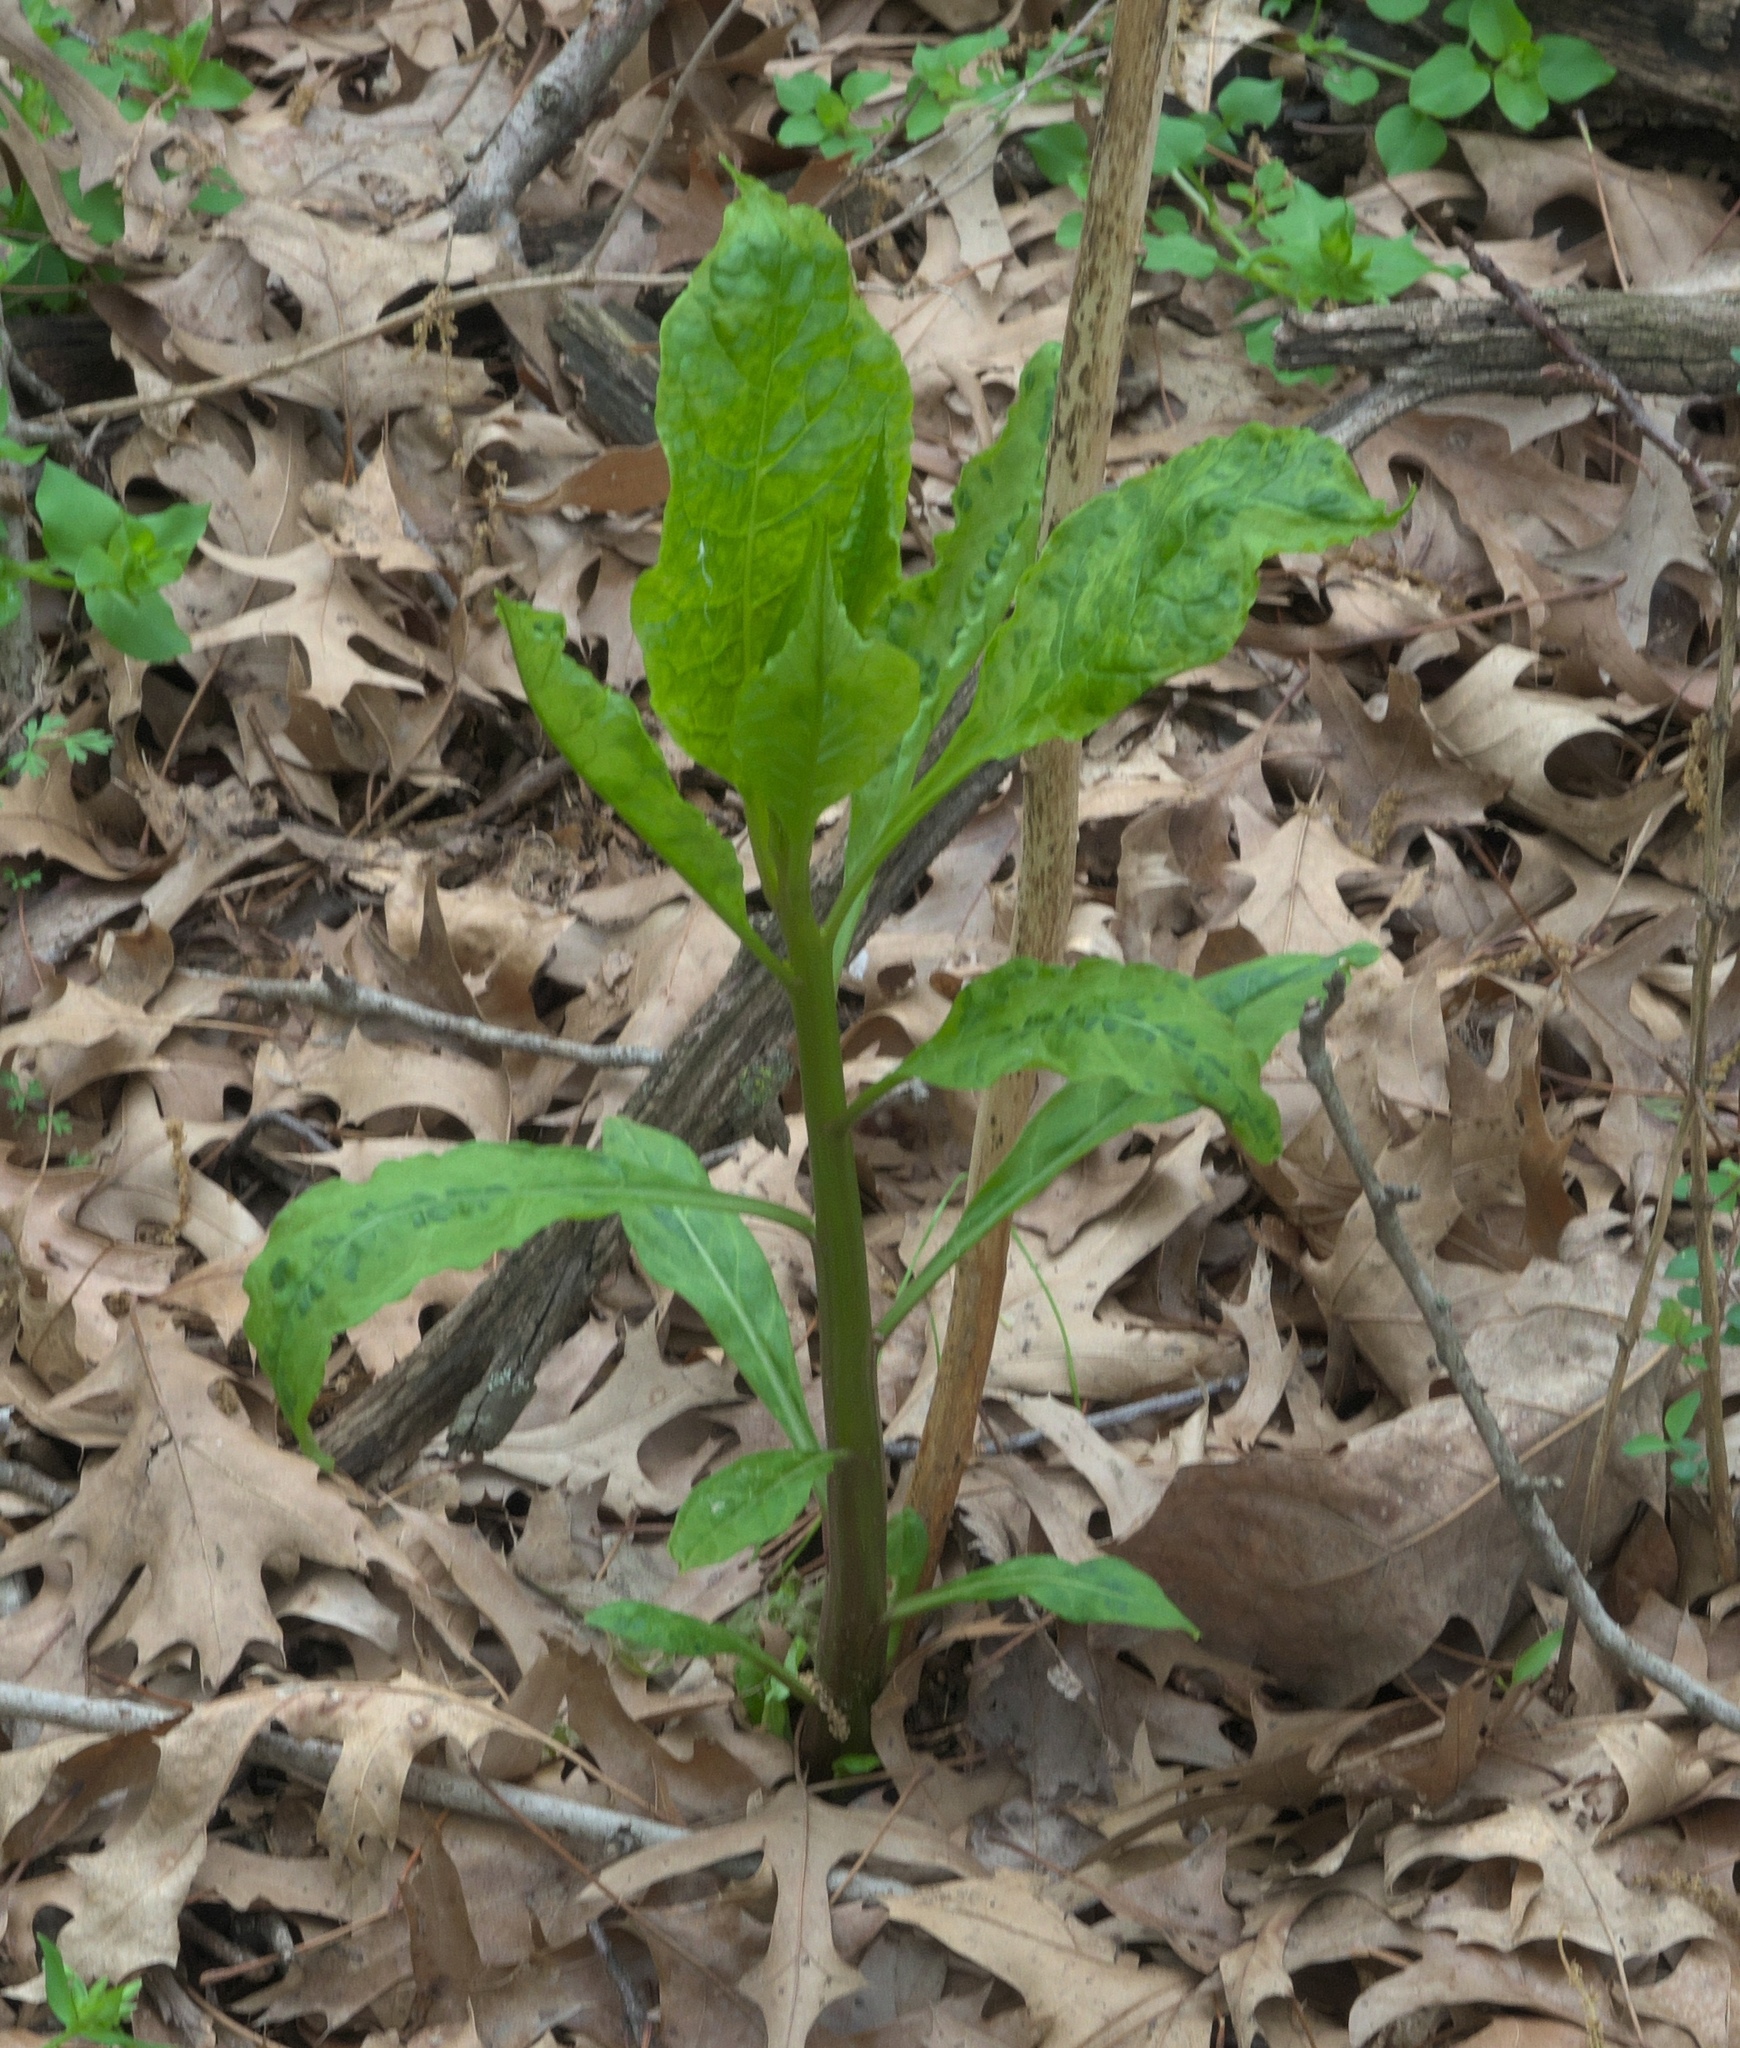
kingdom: Plantae
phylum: Tracheophyta
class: Magnoliopsida
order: Caryophyllales
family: Phytolaccaceae
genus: Phytolacca
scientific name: Phytolacca americana
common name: American pokeweed
